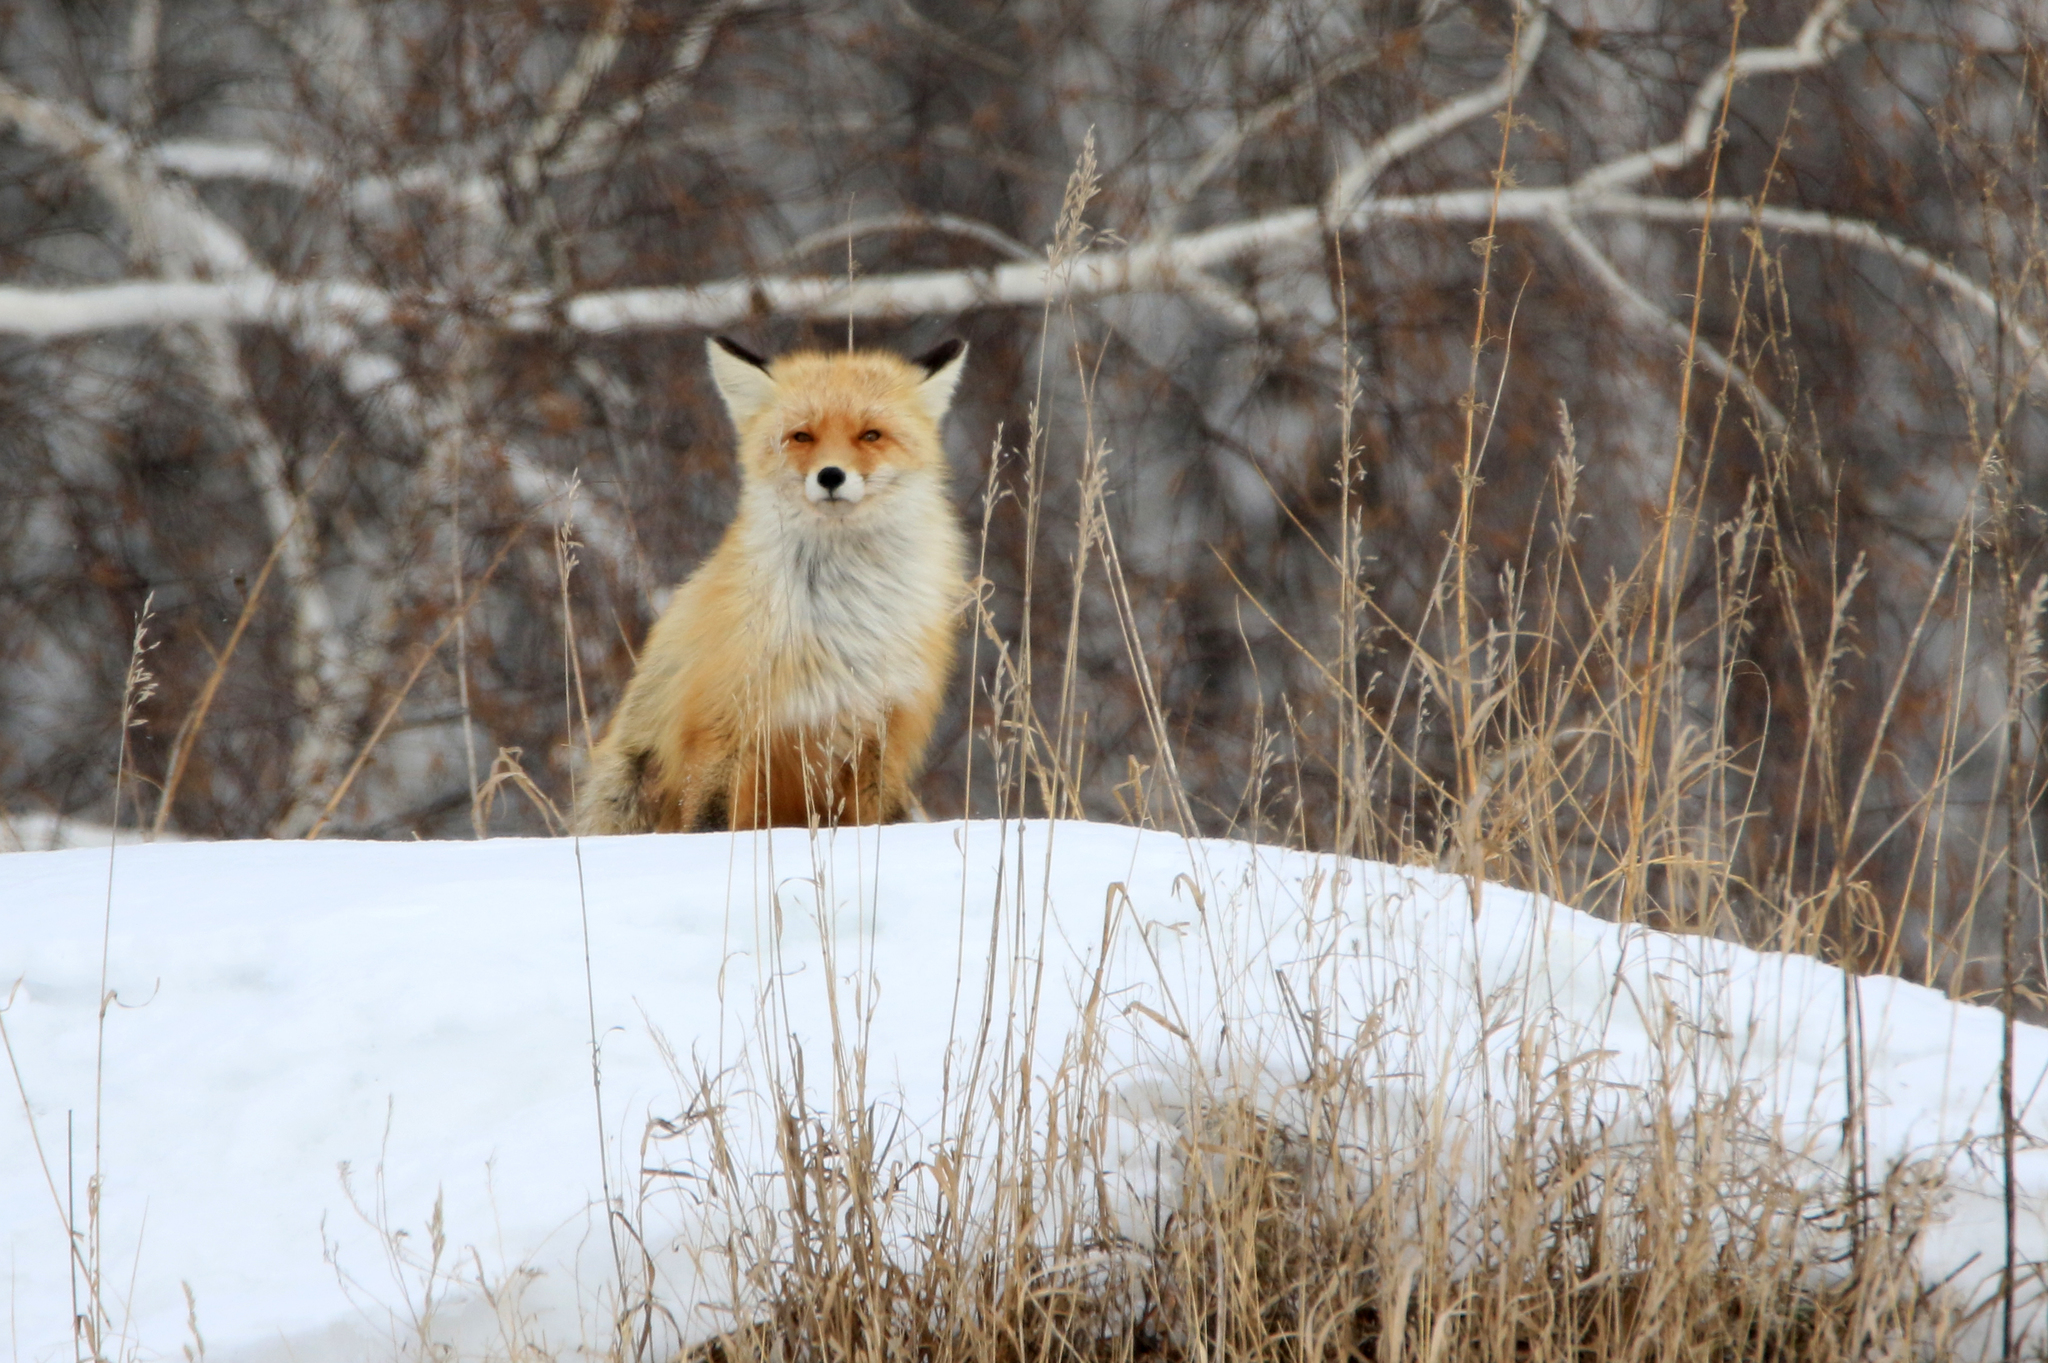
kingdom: Animalia
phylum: Chordata
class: Mammalia
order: Carnivora
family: Canidae
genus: Vulpes
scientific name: Vulpes vulpes
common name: Red fox
